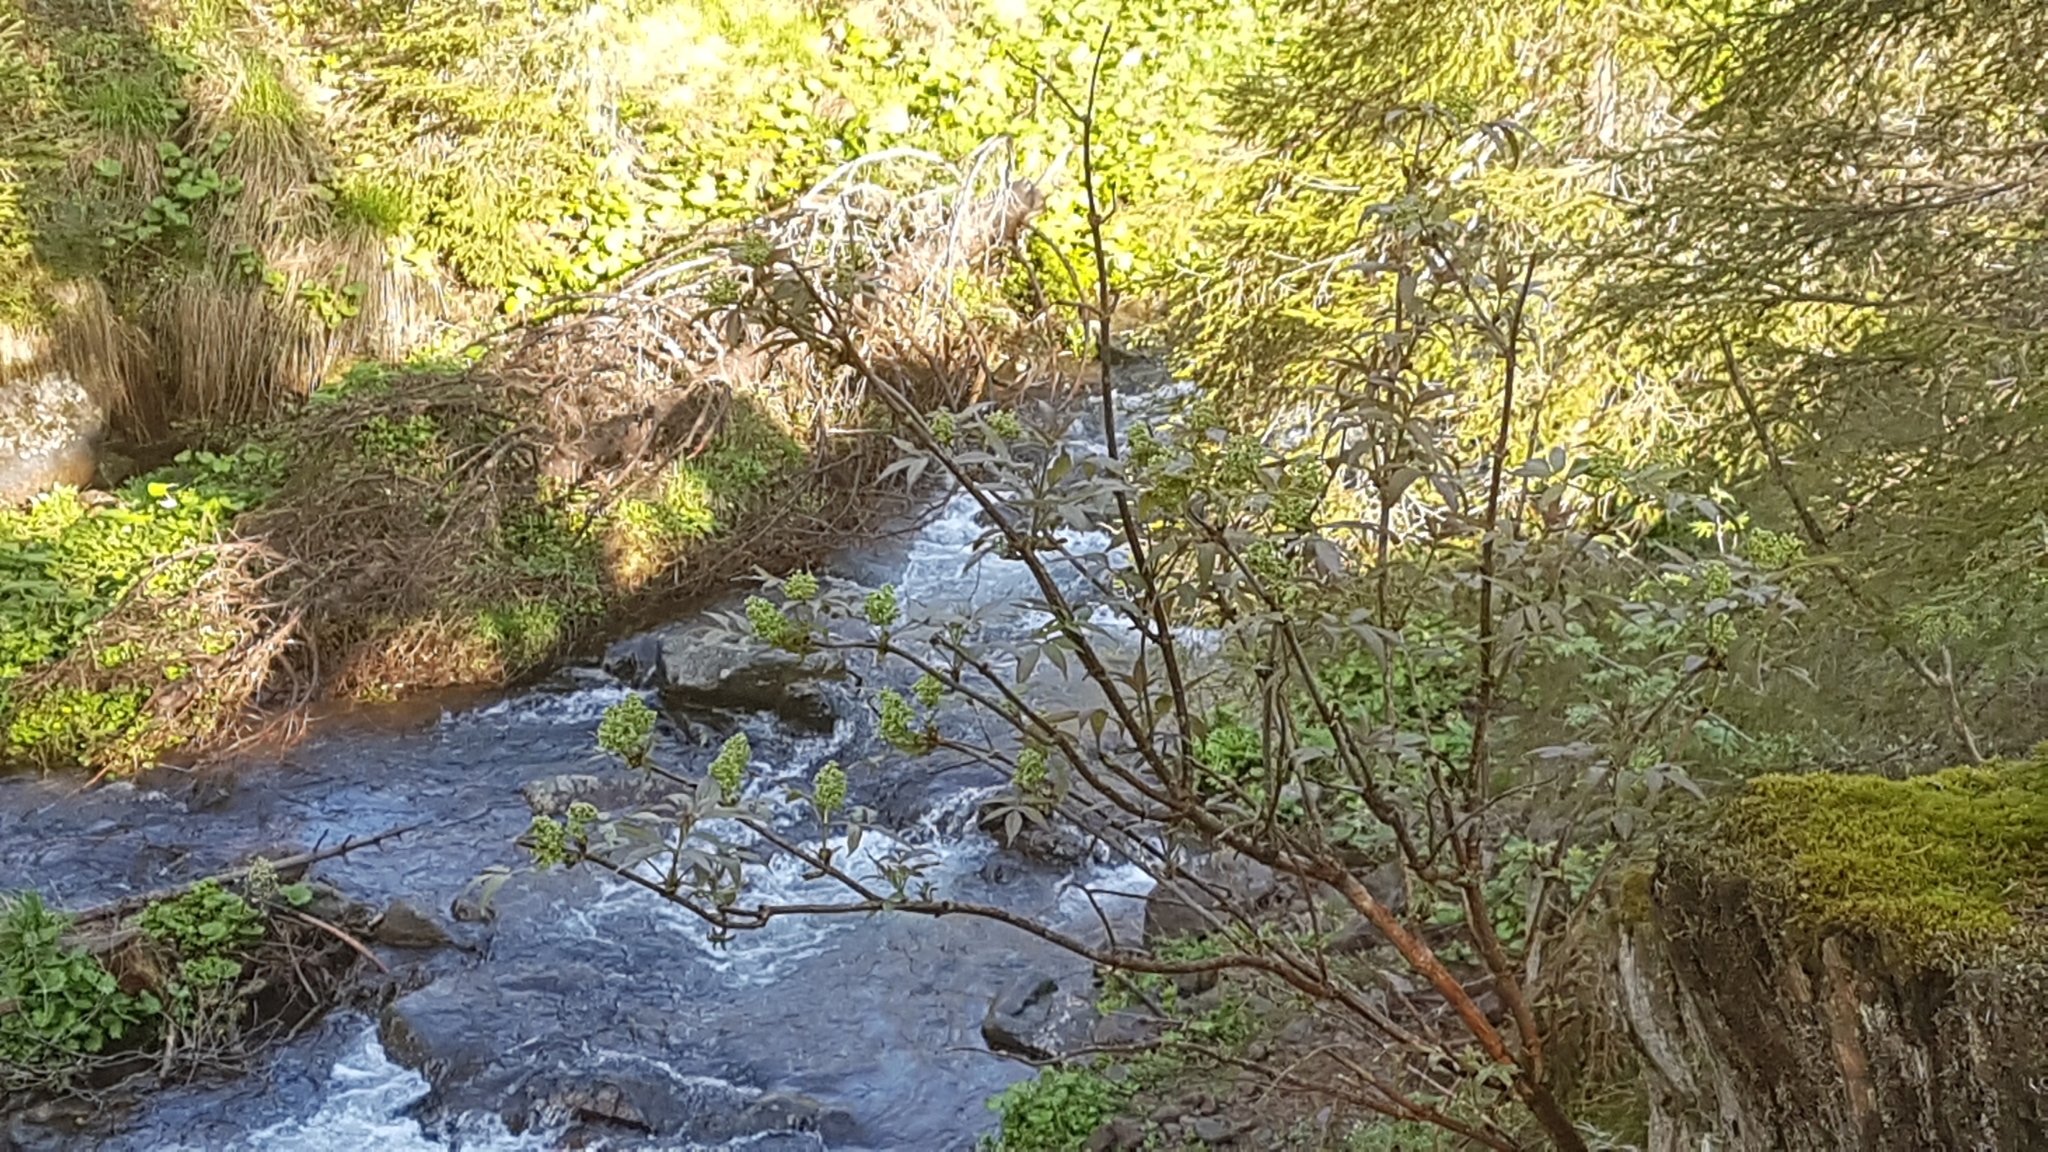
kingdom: Plantae
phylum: Tracheophyta
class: Magnoliopsida
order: Dipsacales
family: Viburnaceae
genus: Sambucus
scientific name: Sambucus racemosa
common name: Red-berried elder
